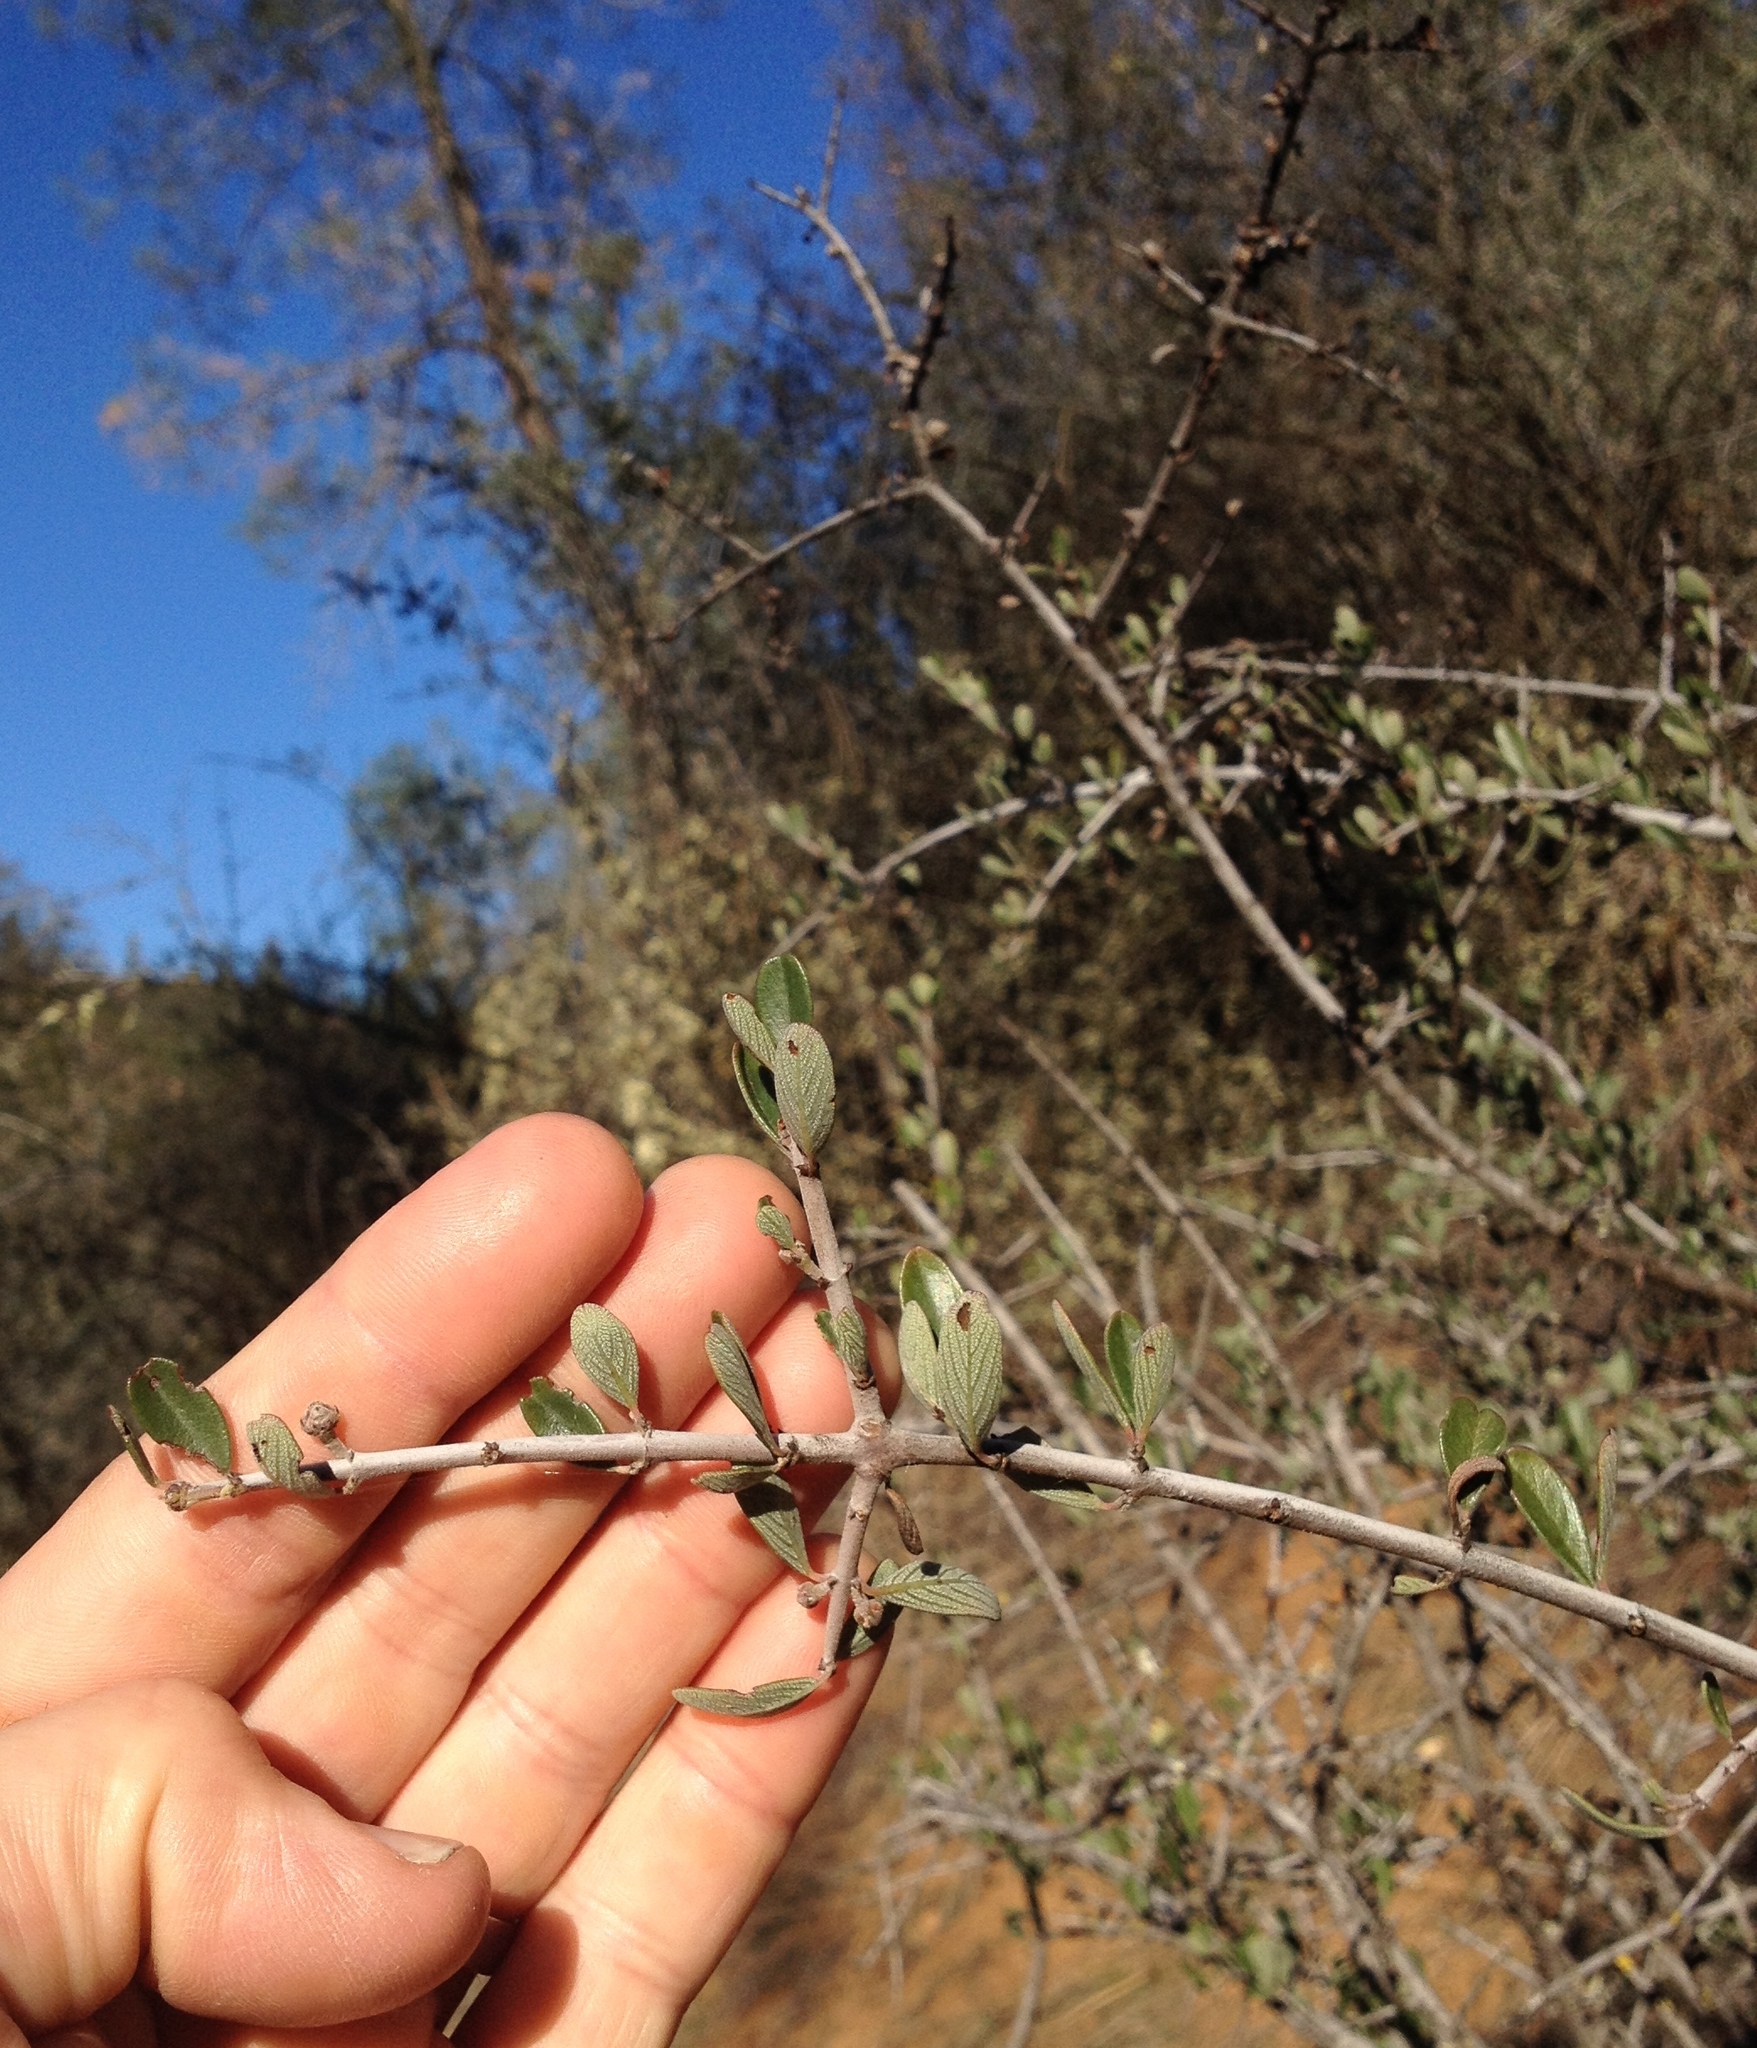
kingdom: Plantae
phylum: Tracheophyta
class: Magnoliopsida
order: Rosales
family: Rhamnaceae
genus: Ceanothus
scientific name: Ceanothus cuneatus
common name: Cuneate ceanothus
